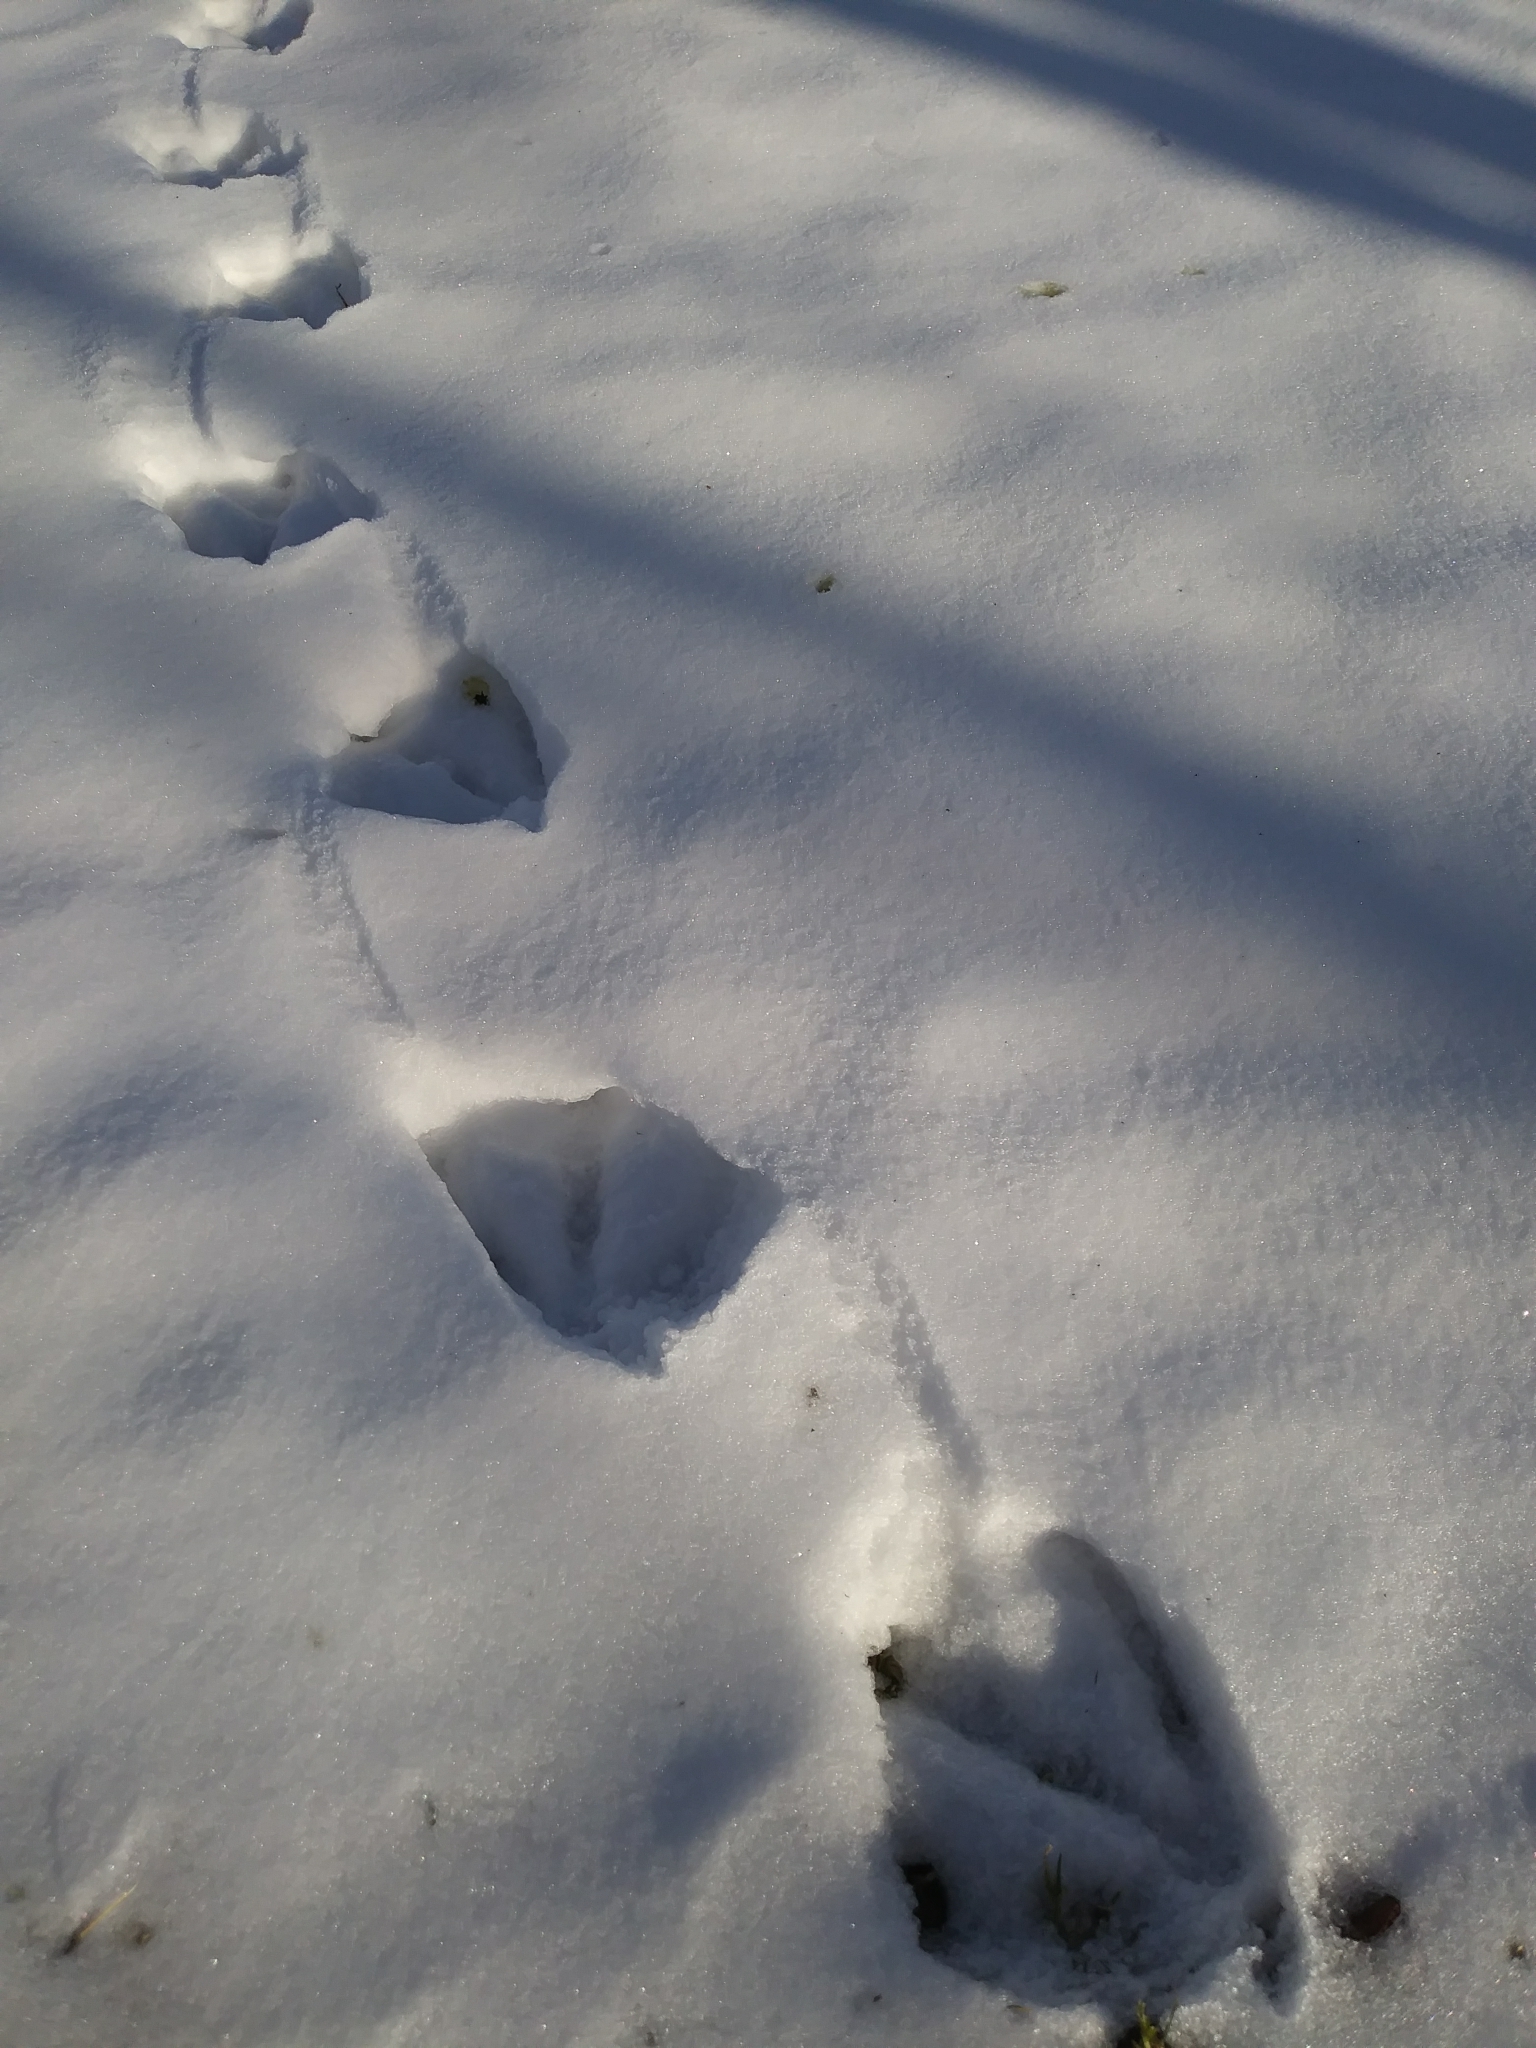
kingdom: Animalia
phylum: Chordata
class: Aves
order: Anseriformes
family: Anatidae
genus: Branta
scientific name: Branta canadensis
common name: Canada goose
